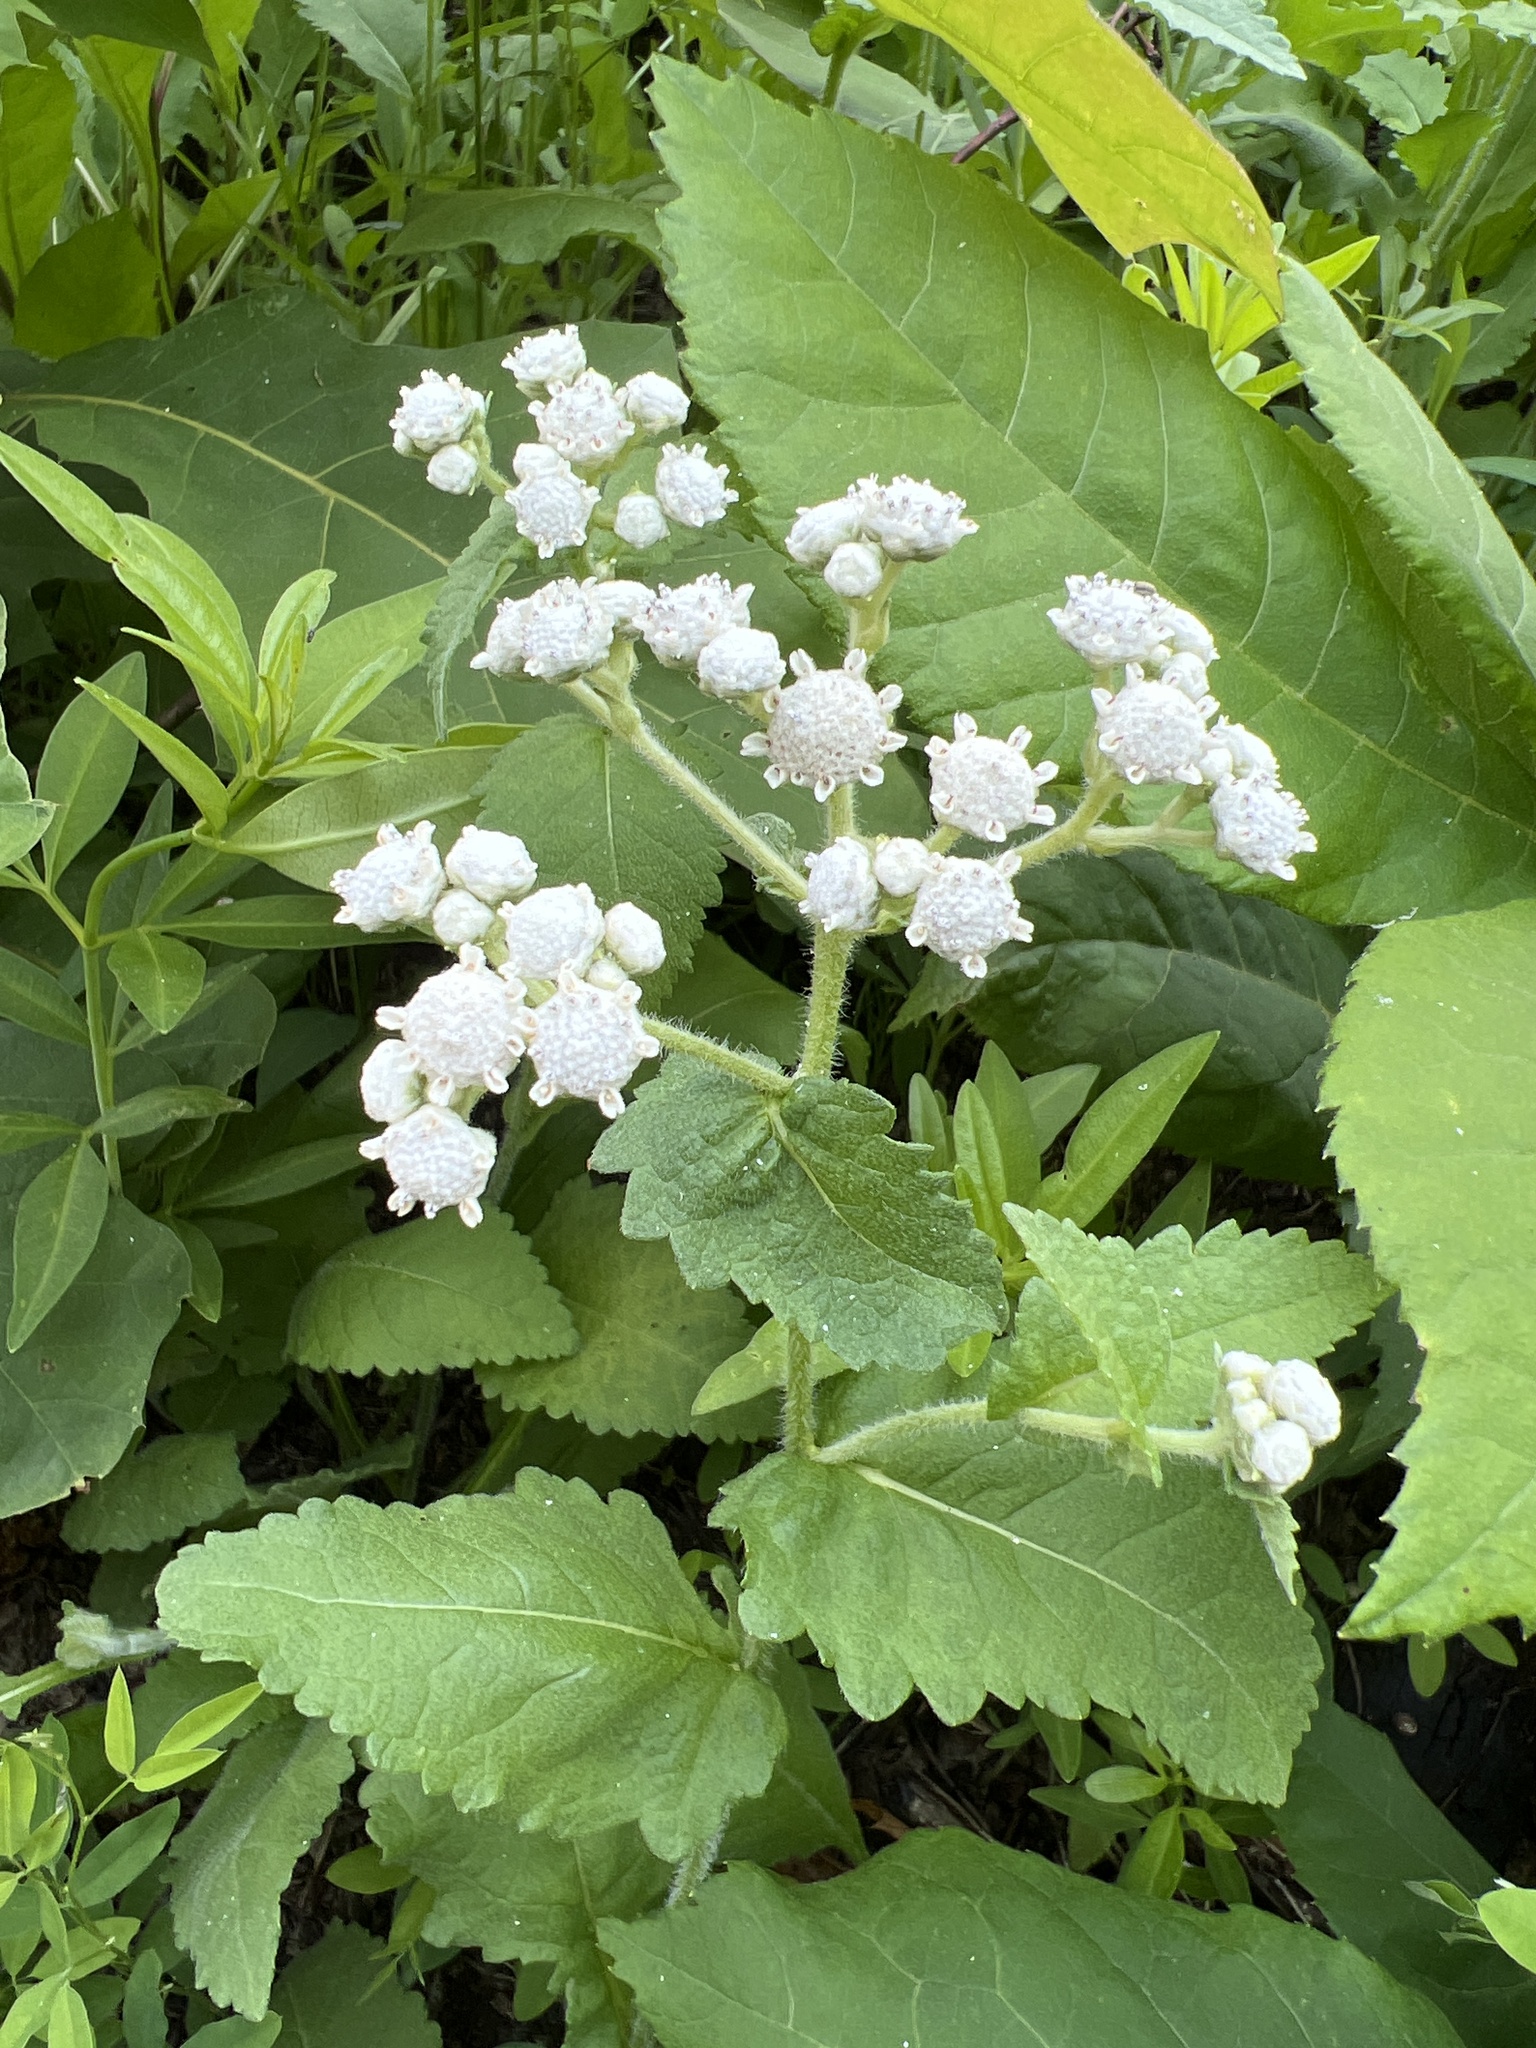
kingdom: Plantae
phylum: Tracheophyta
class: Magnoliopsida
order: Asterales
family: Asteraceae
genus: Parthenium
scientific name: Parthenium auriculatum
